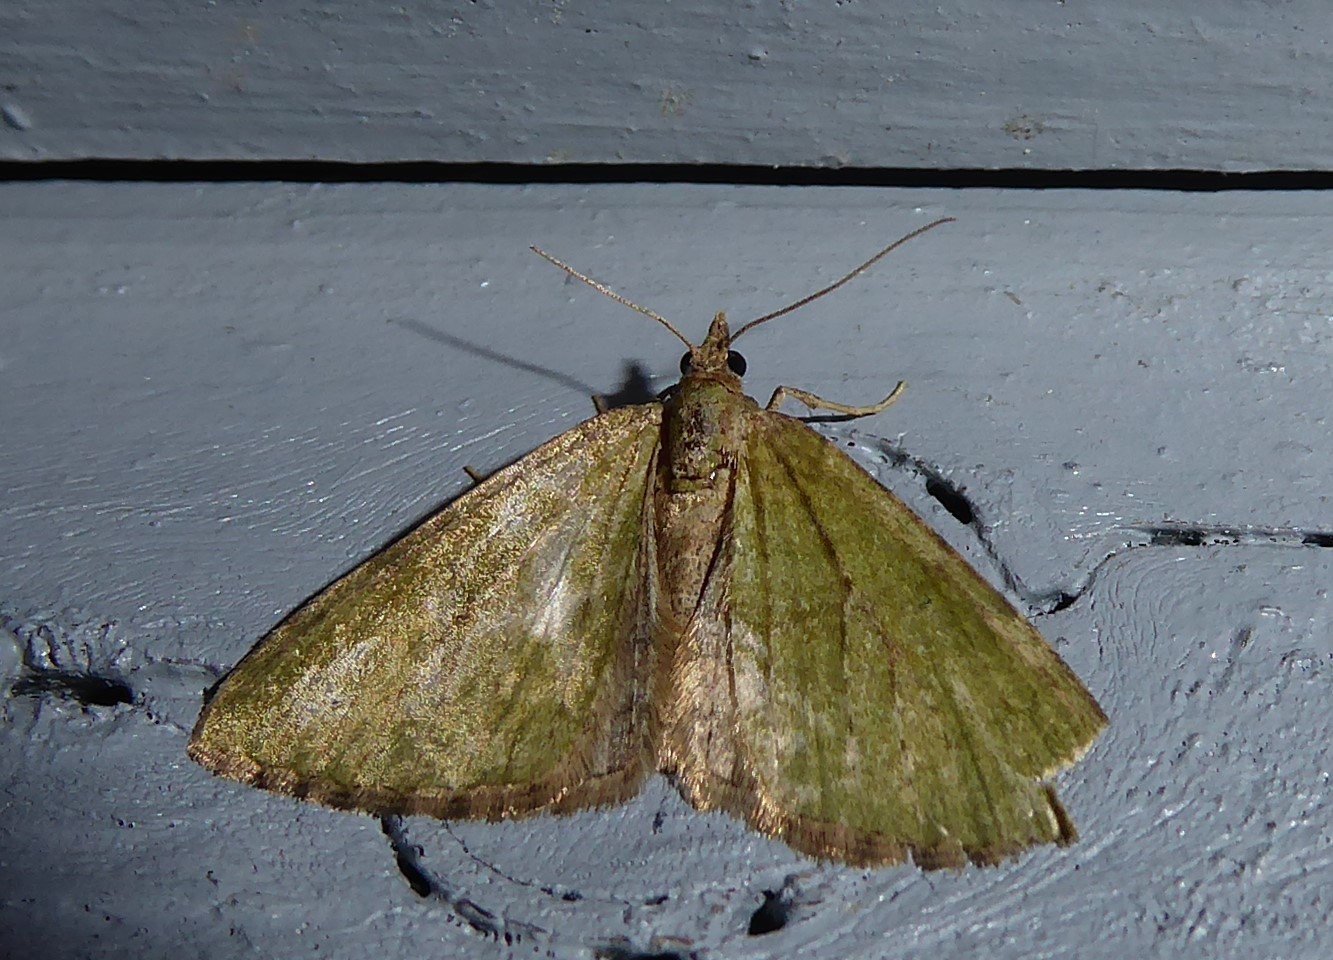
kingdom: Animalia
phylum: Arthropoda
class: Insecta
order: Lepidoptera
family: Geometridae
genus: Epyaxa
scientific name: Epyaxa rosearia
